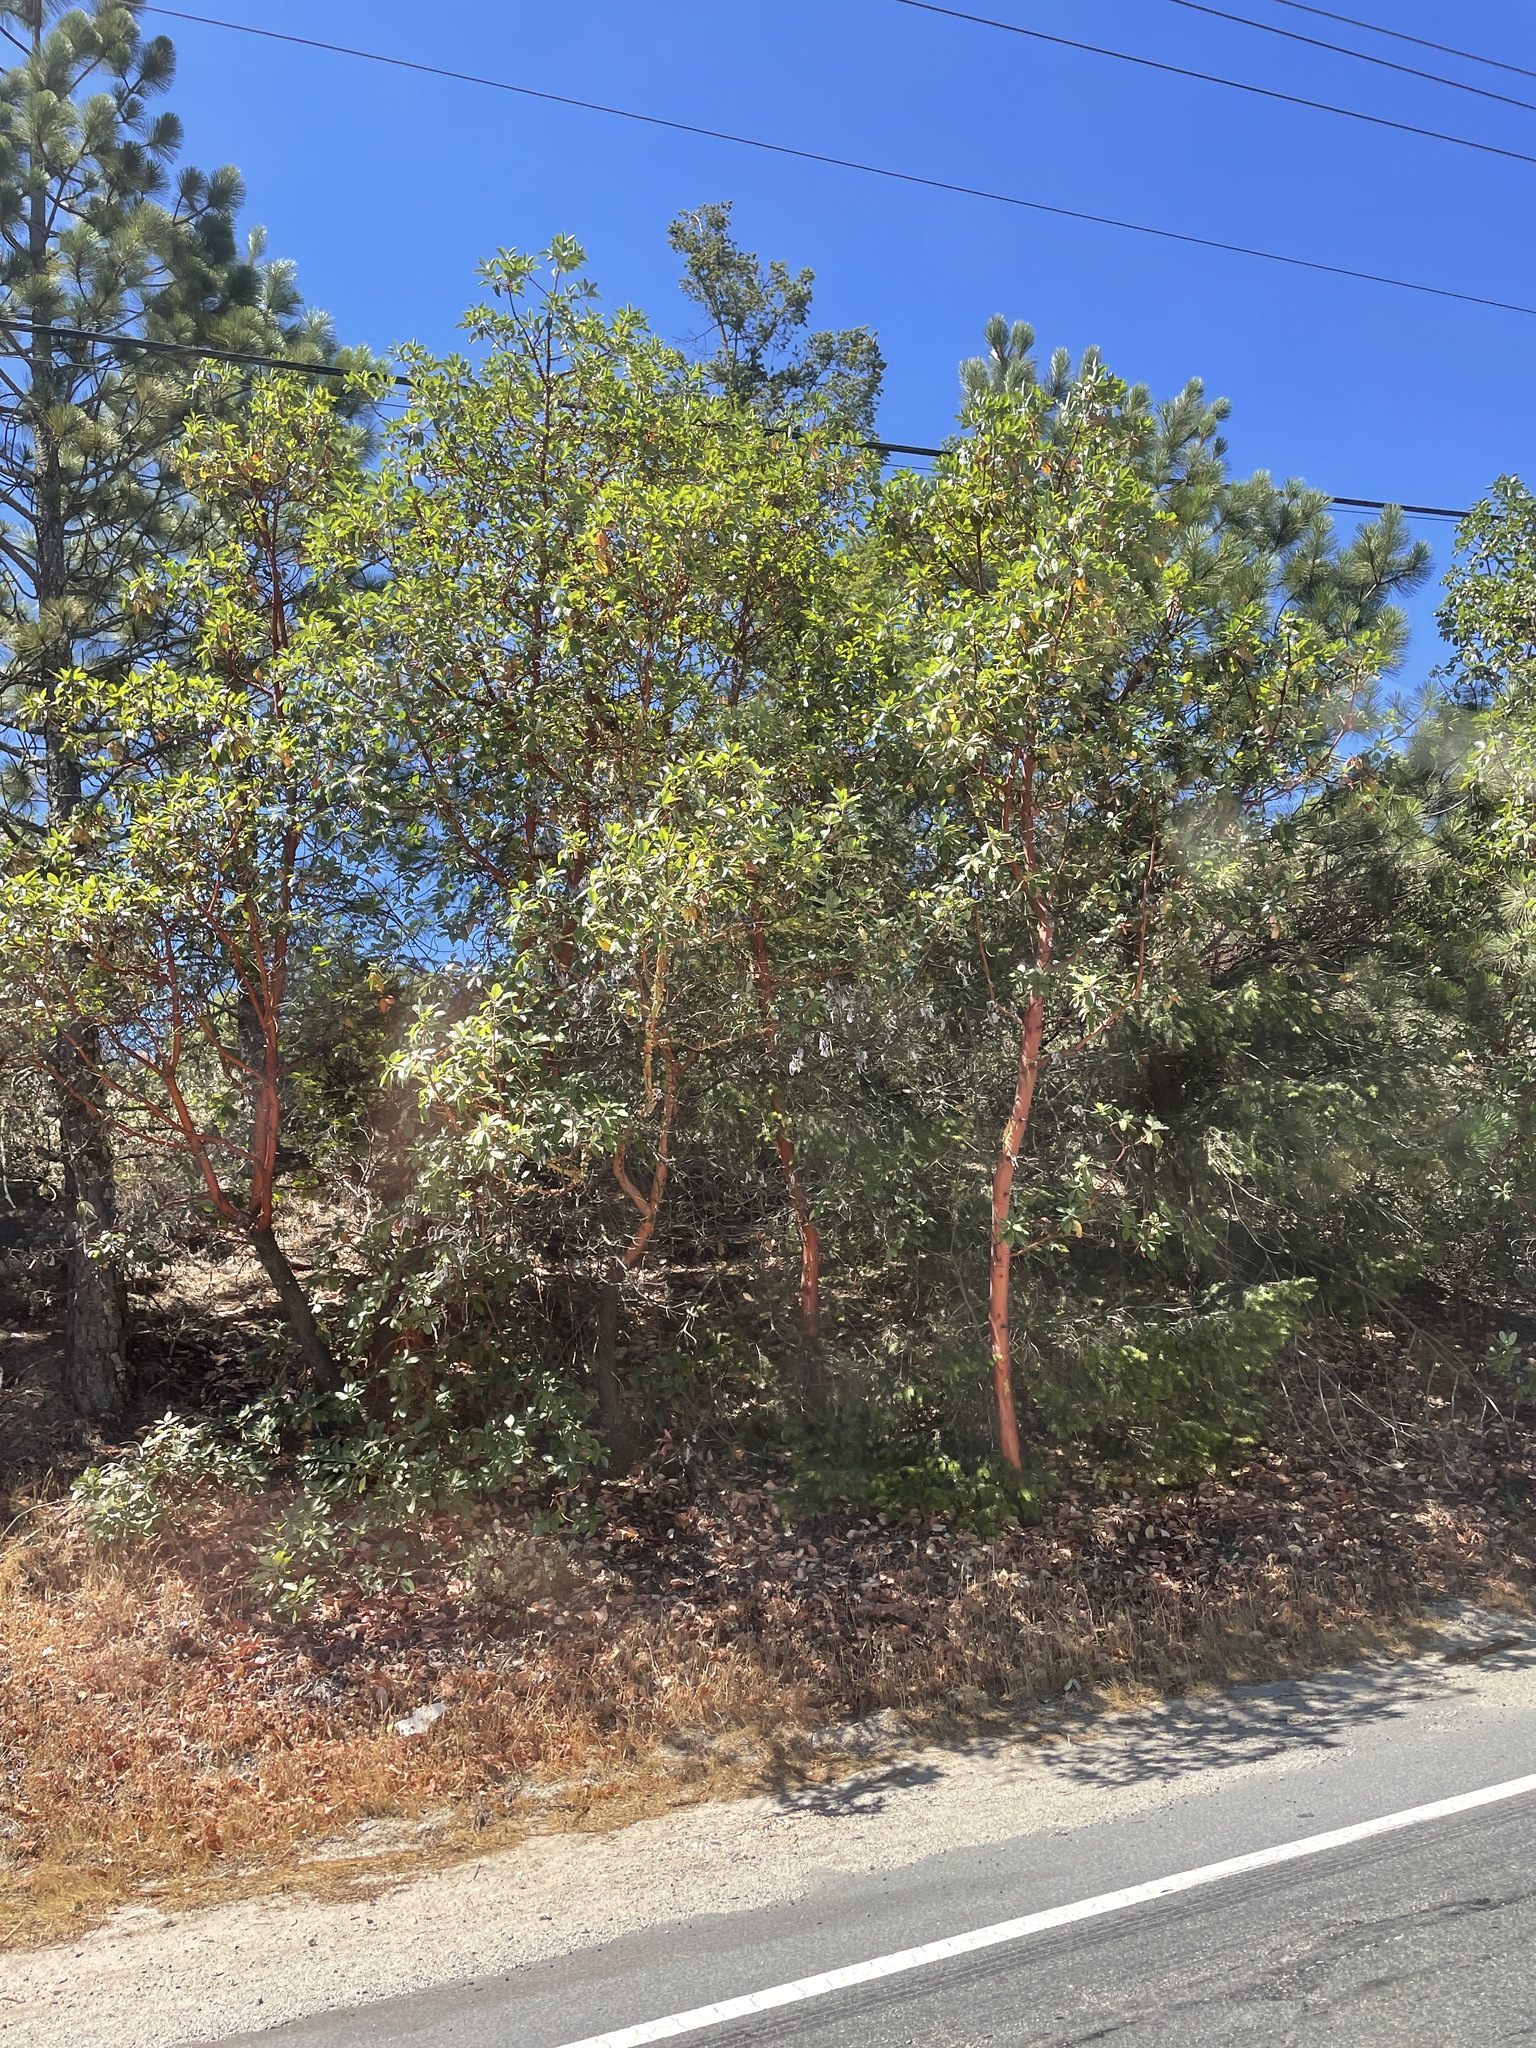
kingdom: Plantae
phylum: Tracheophyta
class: Magnoliopsida
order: Ericales
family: Ericaceae
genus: Arbutus
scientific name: Arbutus menziesii
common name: Pacific madrone
